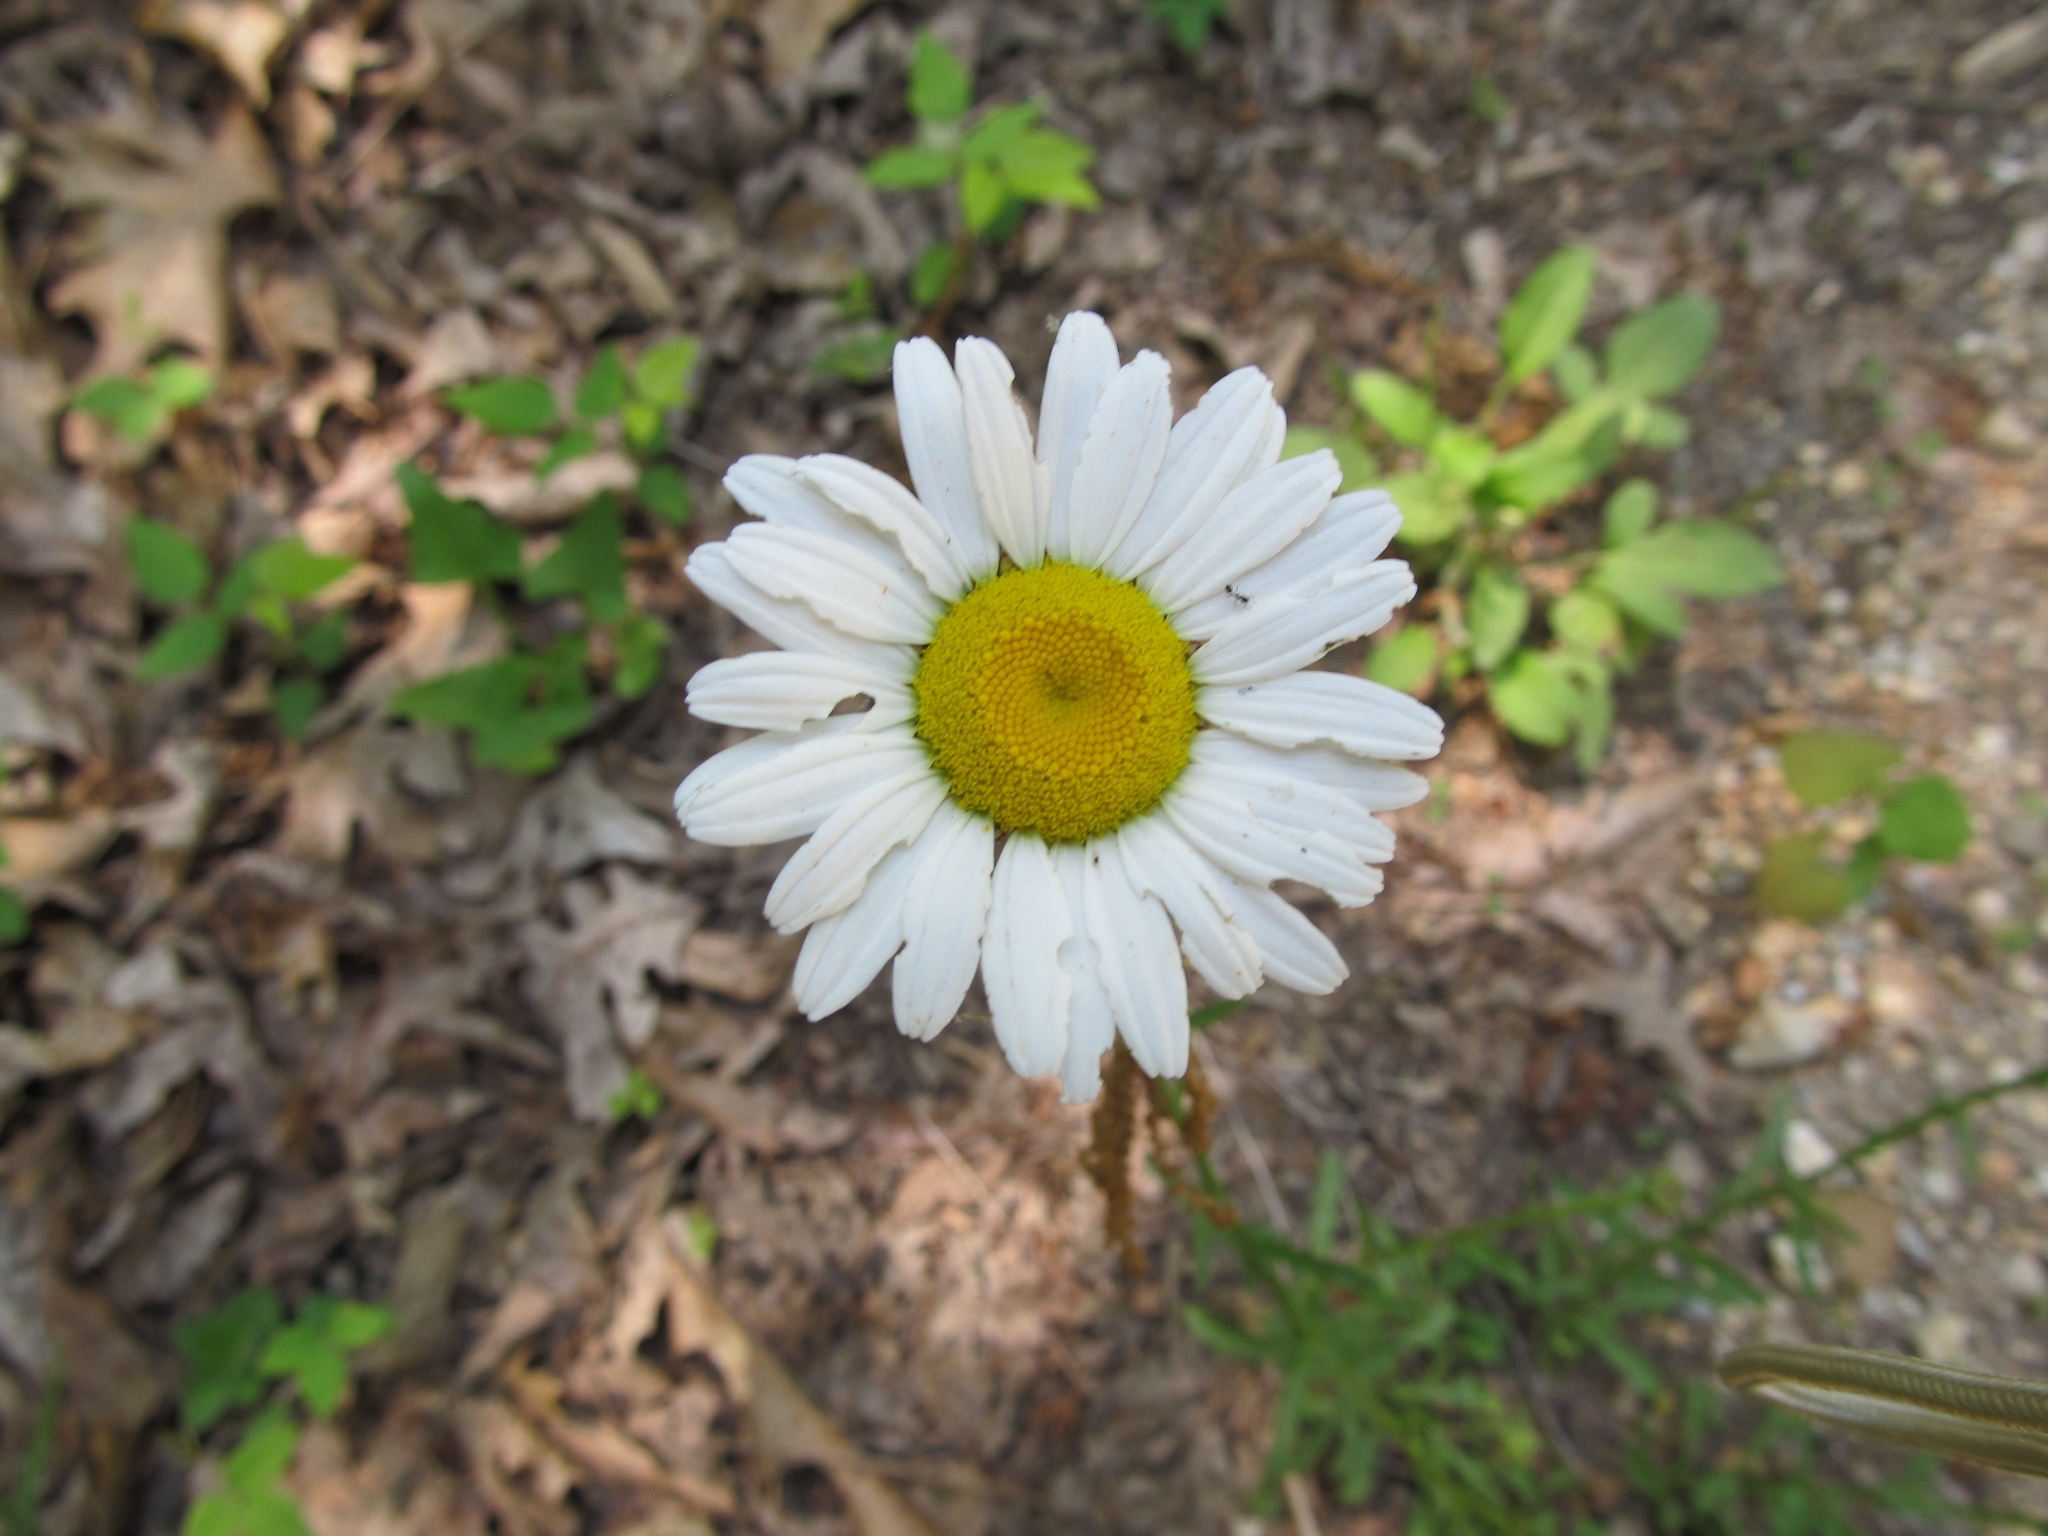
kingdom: Plantae
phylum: Tracheophyta
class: Magnoliopsida
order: Asterales
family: Asteraceae
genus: Leucanthemum
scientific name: Leucanthemum vulgare
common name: Oxeye daisy
